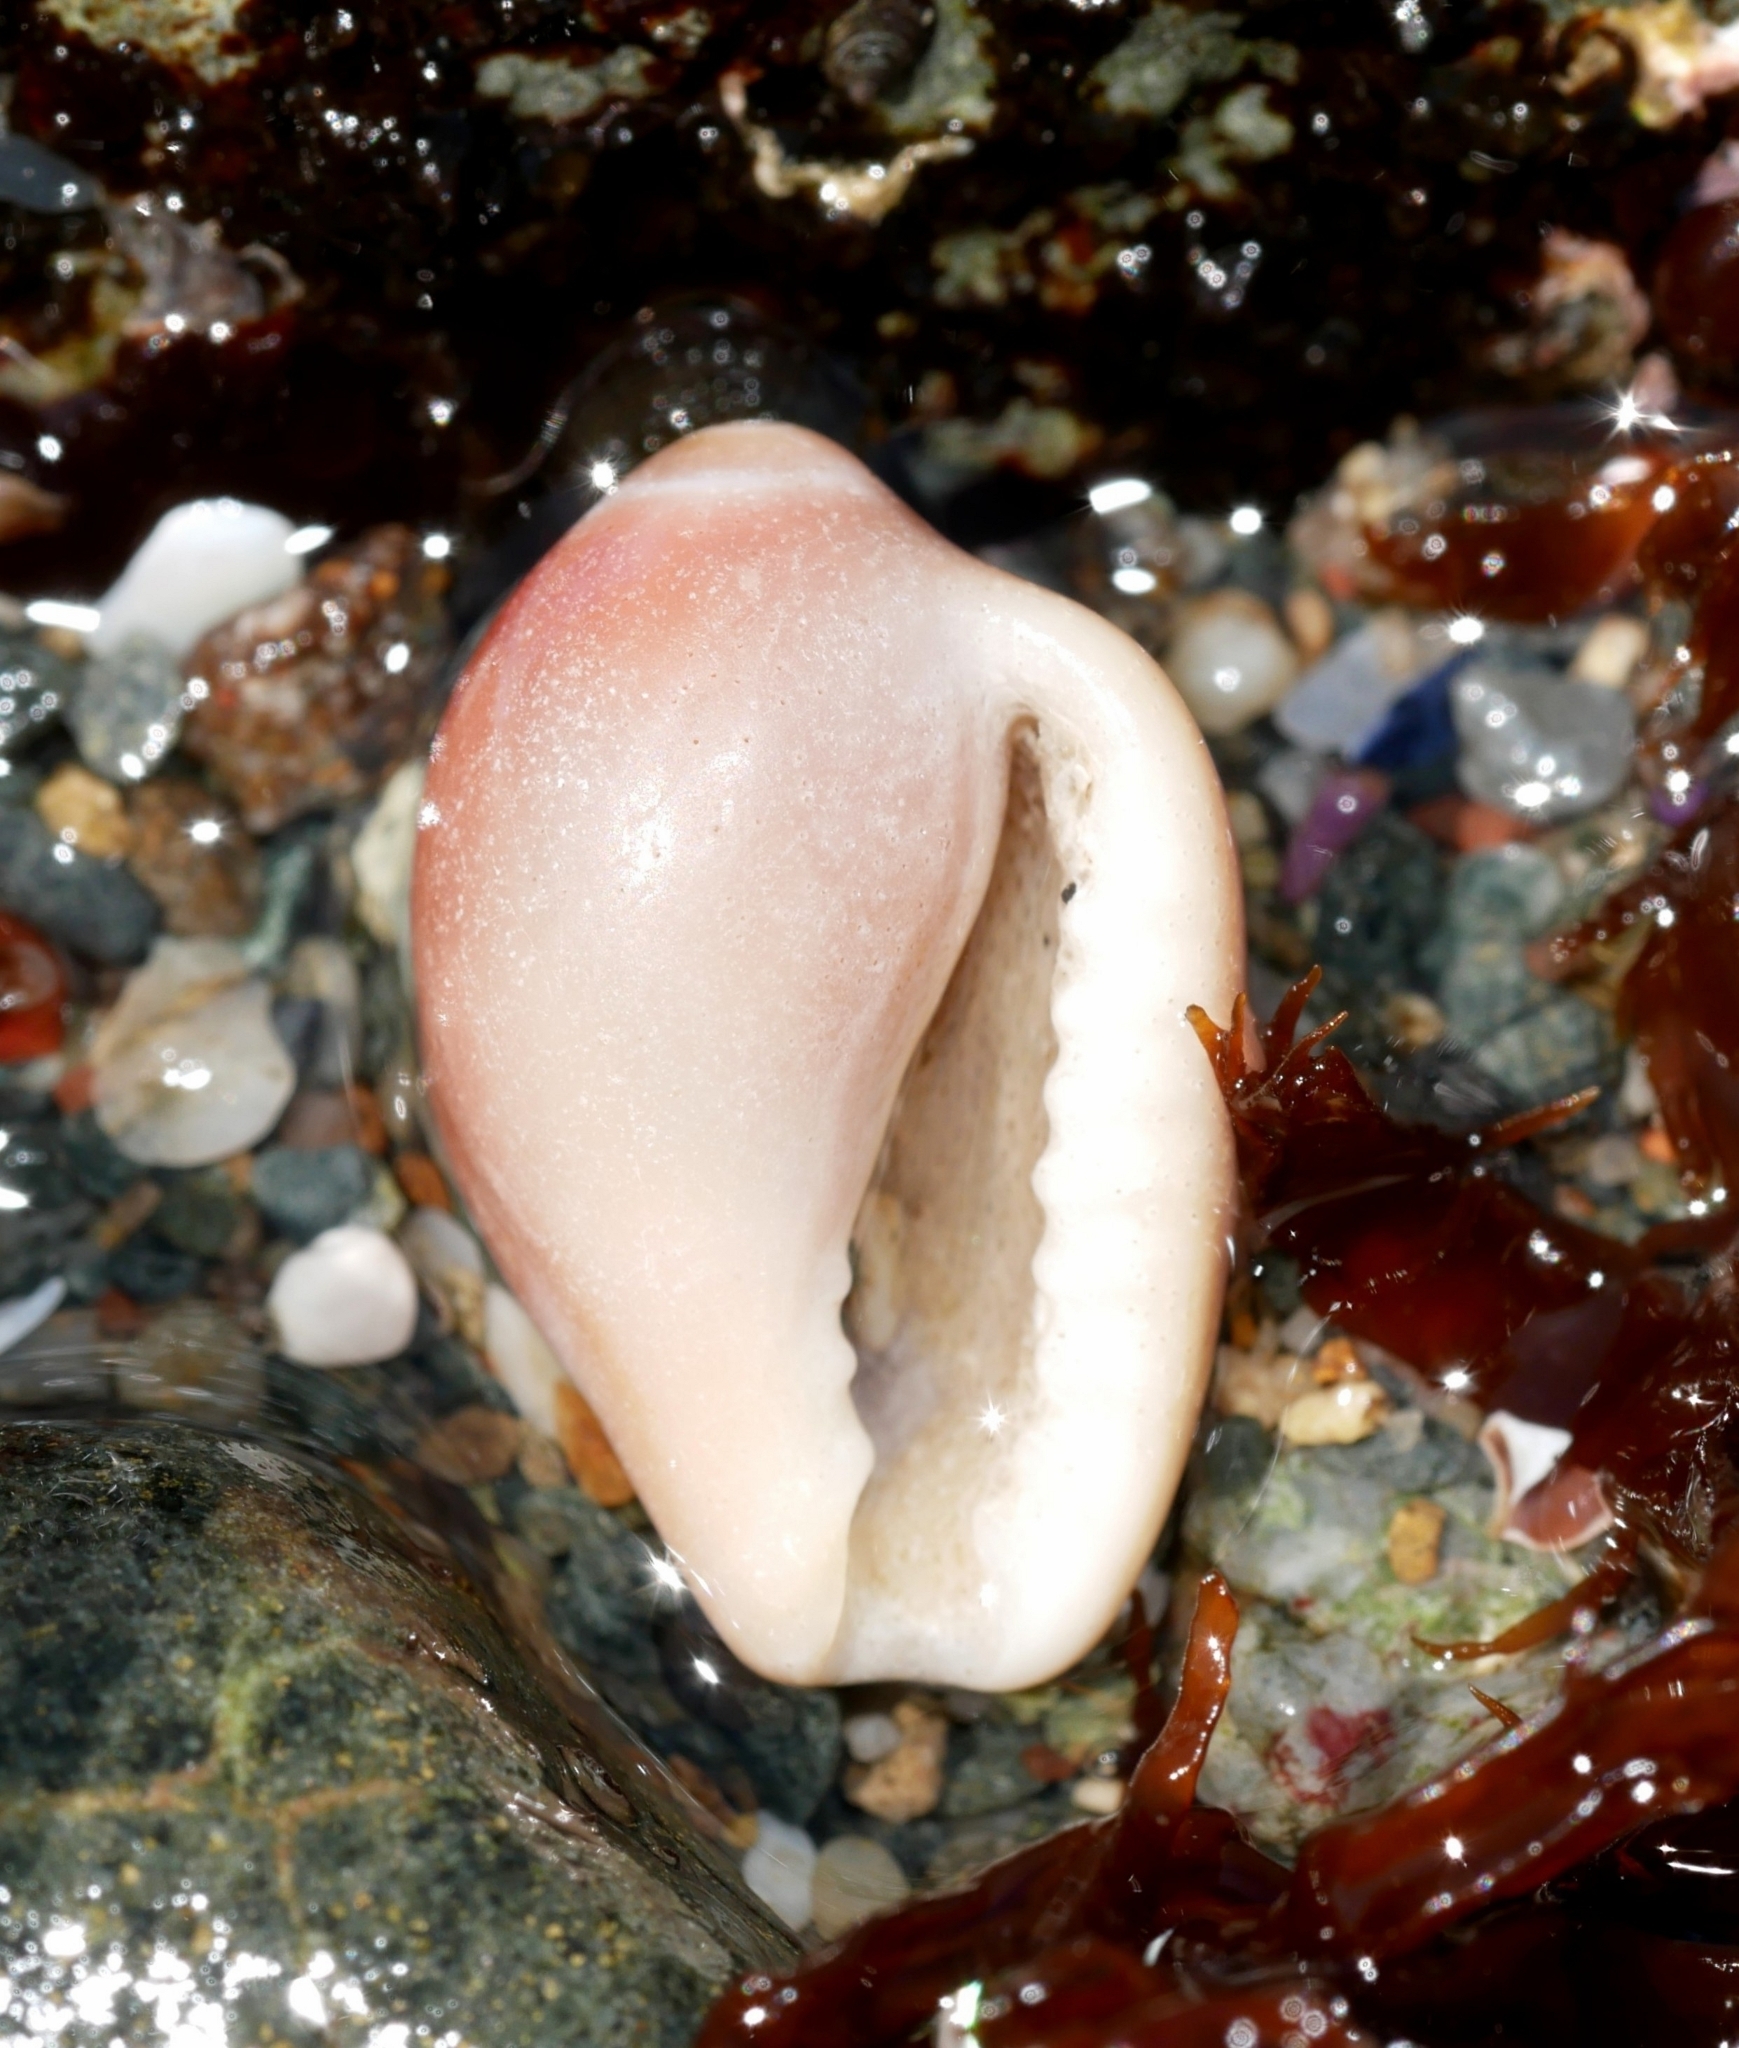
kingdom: Animalia
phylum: Mollusca
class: Gastropoda
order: Littorinimorpha
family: Eratoidae
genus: Hespererato
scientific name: Hespererato vitellina
